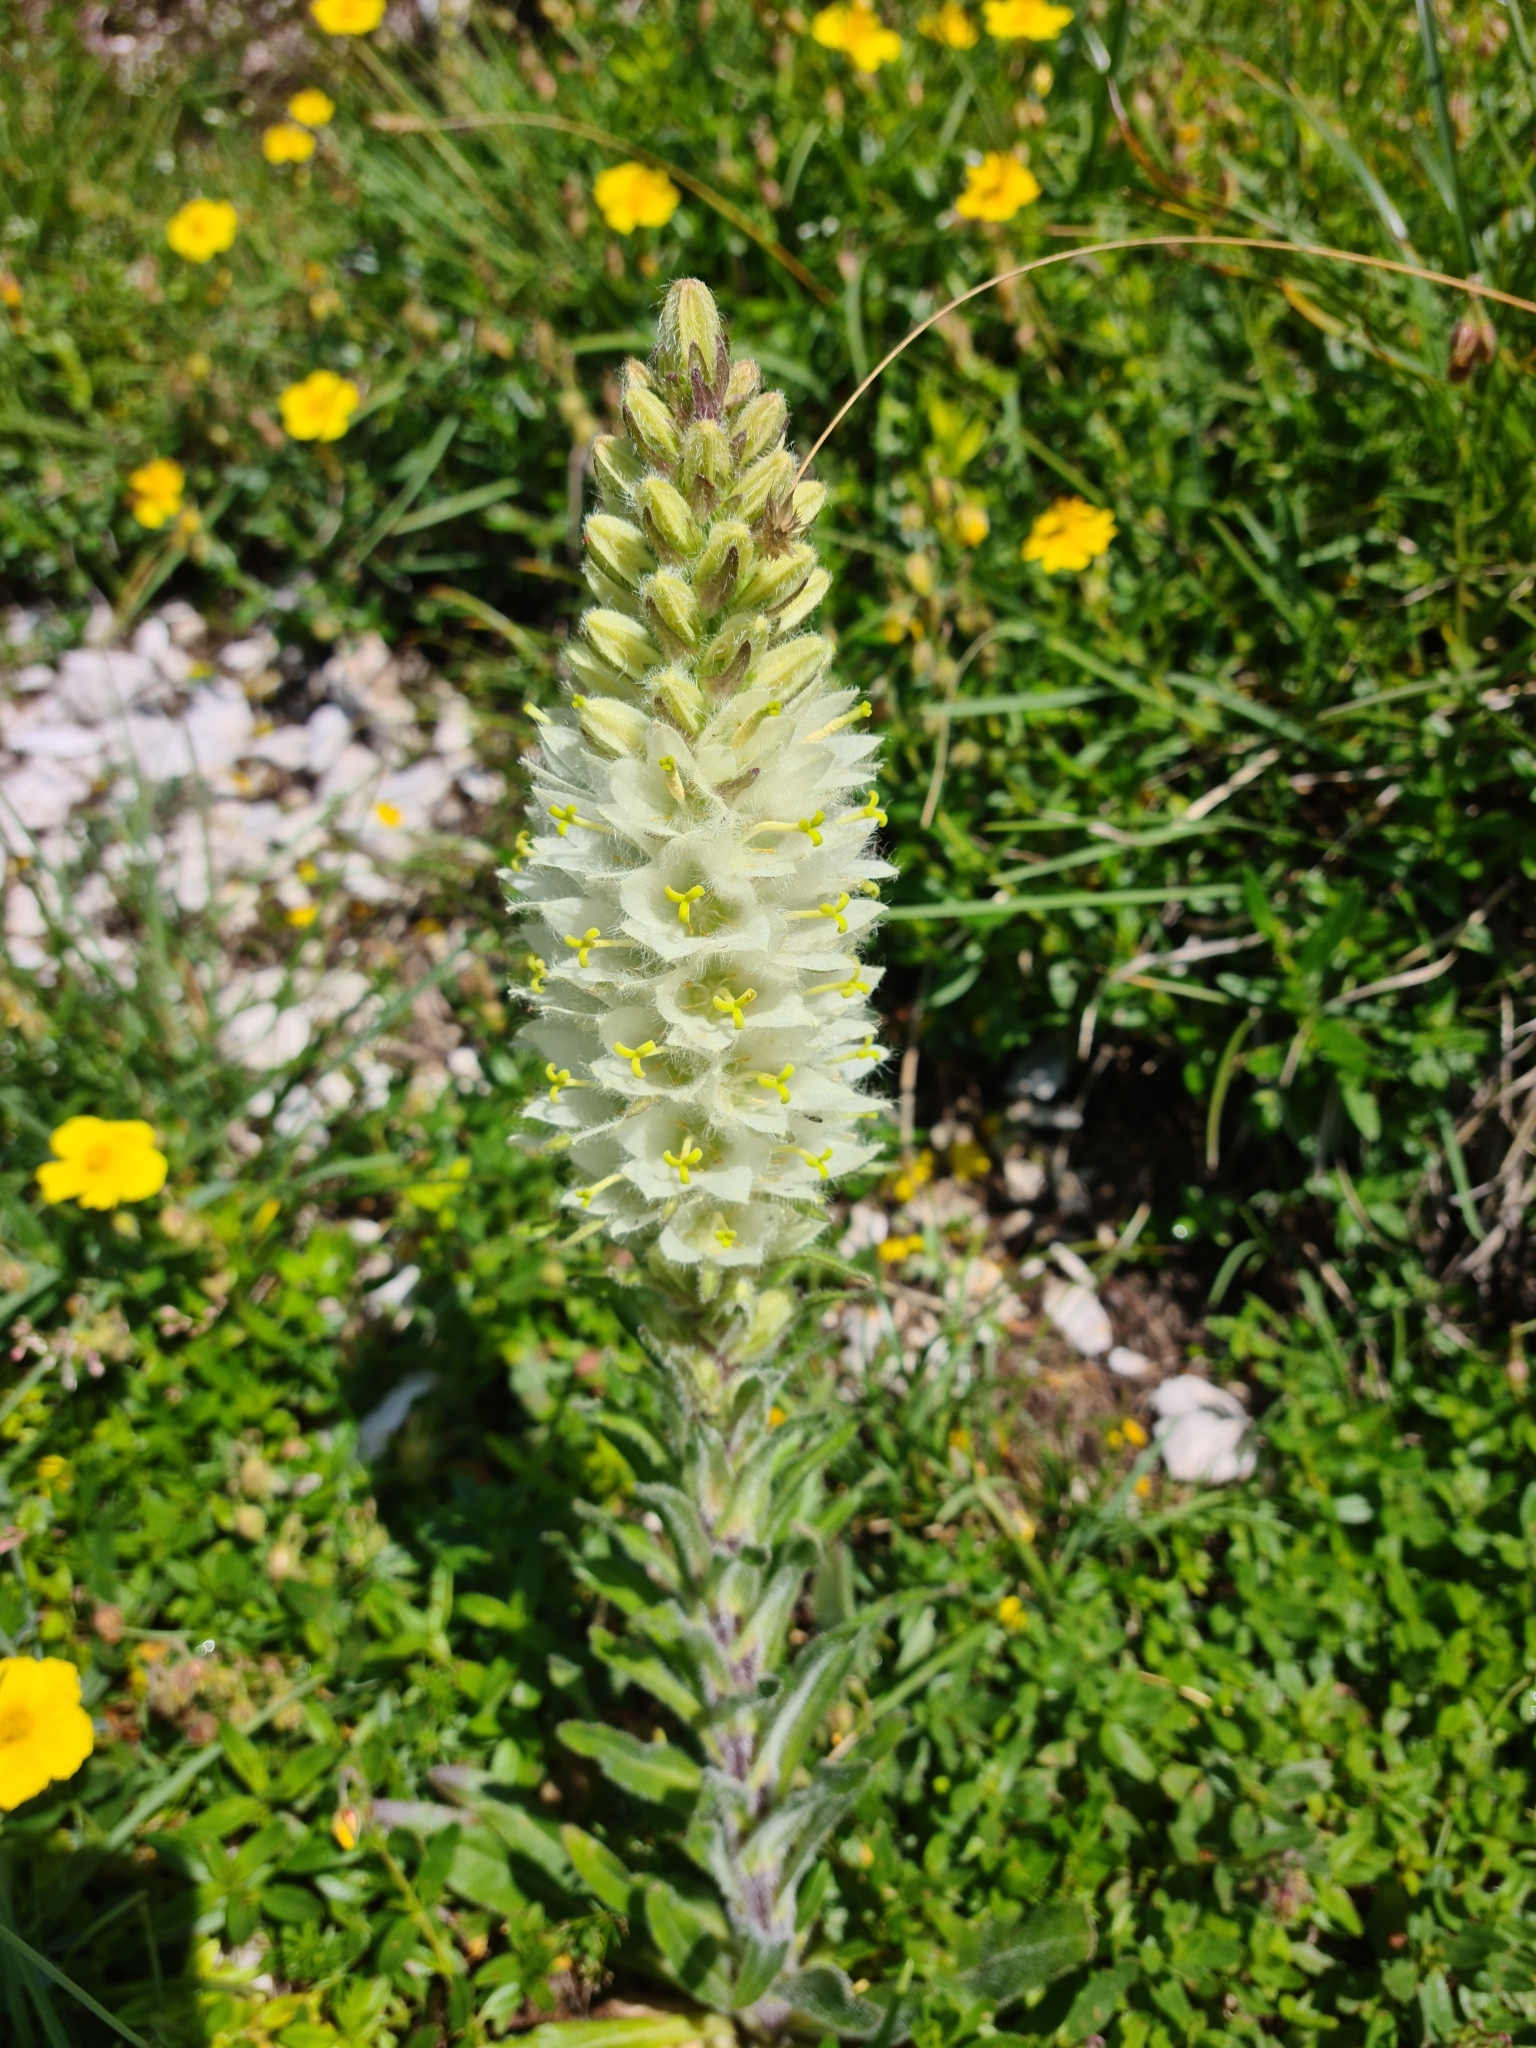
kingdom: Plantae
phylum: Tracheophyta
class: Magnoliopsida
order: Asterales
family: Campanulaceae
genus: Campanula
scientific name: Campanula thyrsoides
